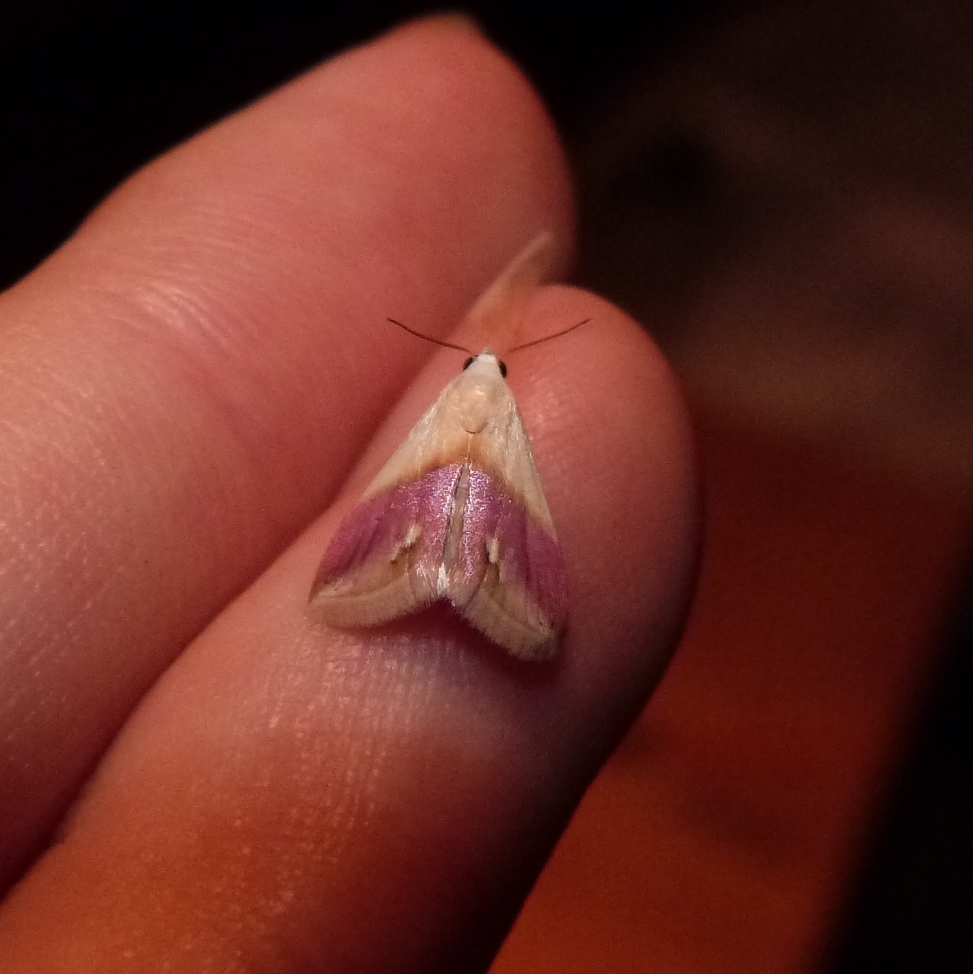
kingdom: Animalia
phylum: Arthropoda
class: Insecta
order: Lepidoptera
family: Noctuidae
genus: Eublemma
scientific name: Eublemma cochylioides
